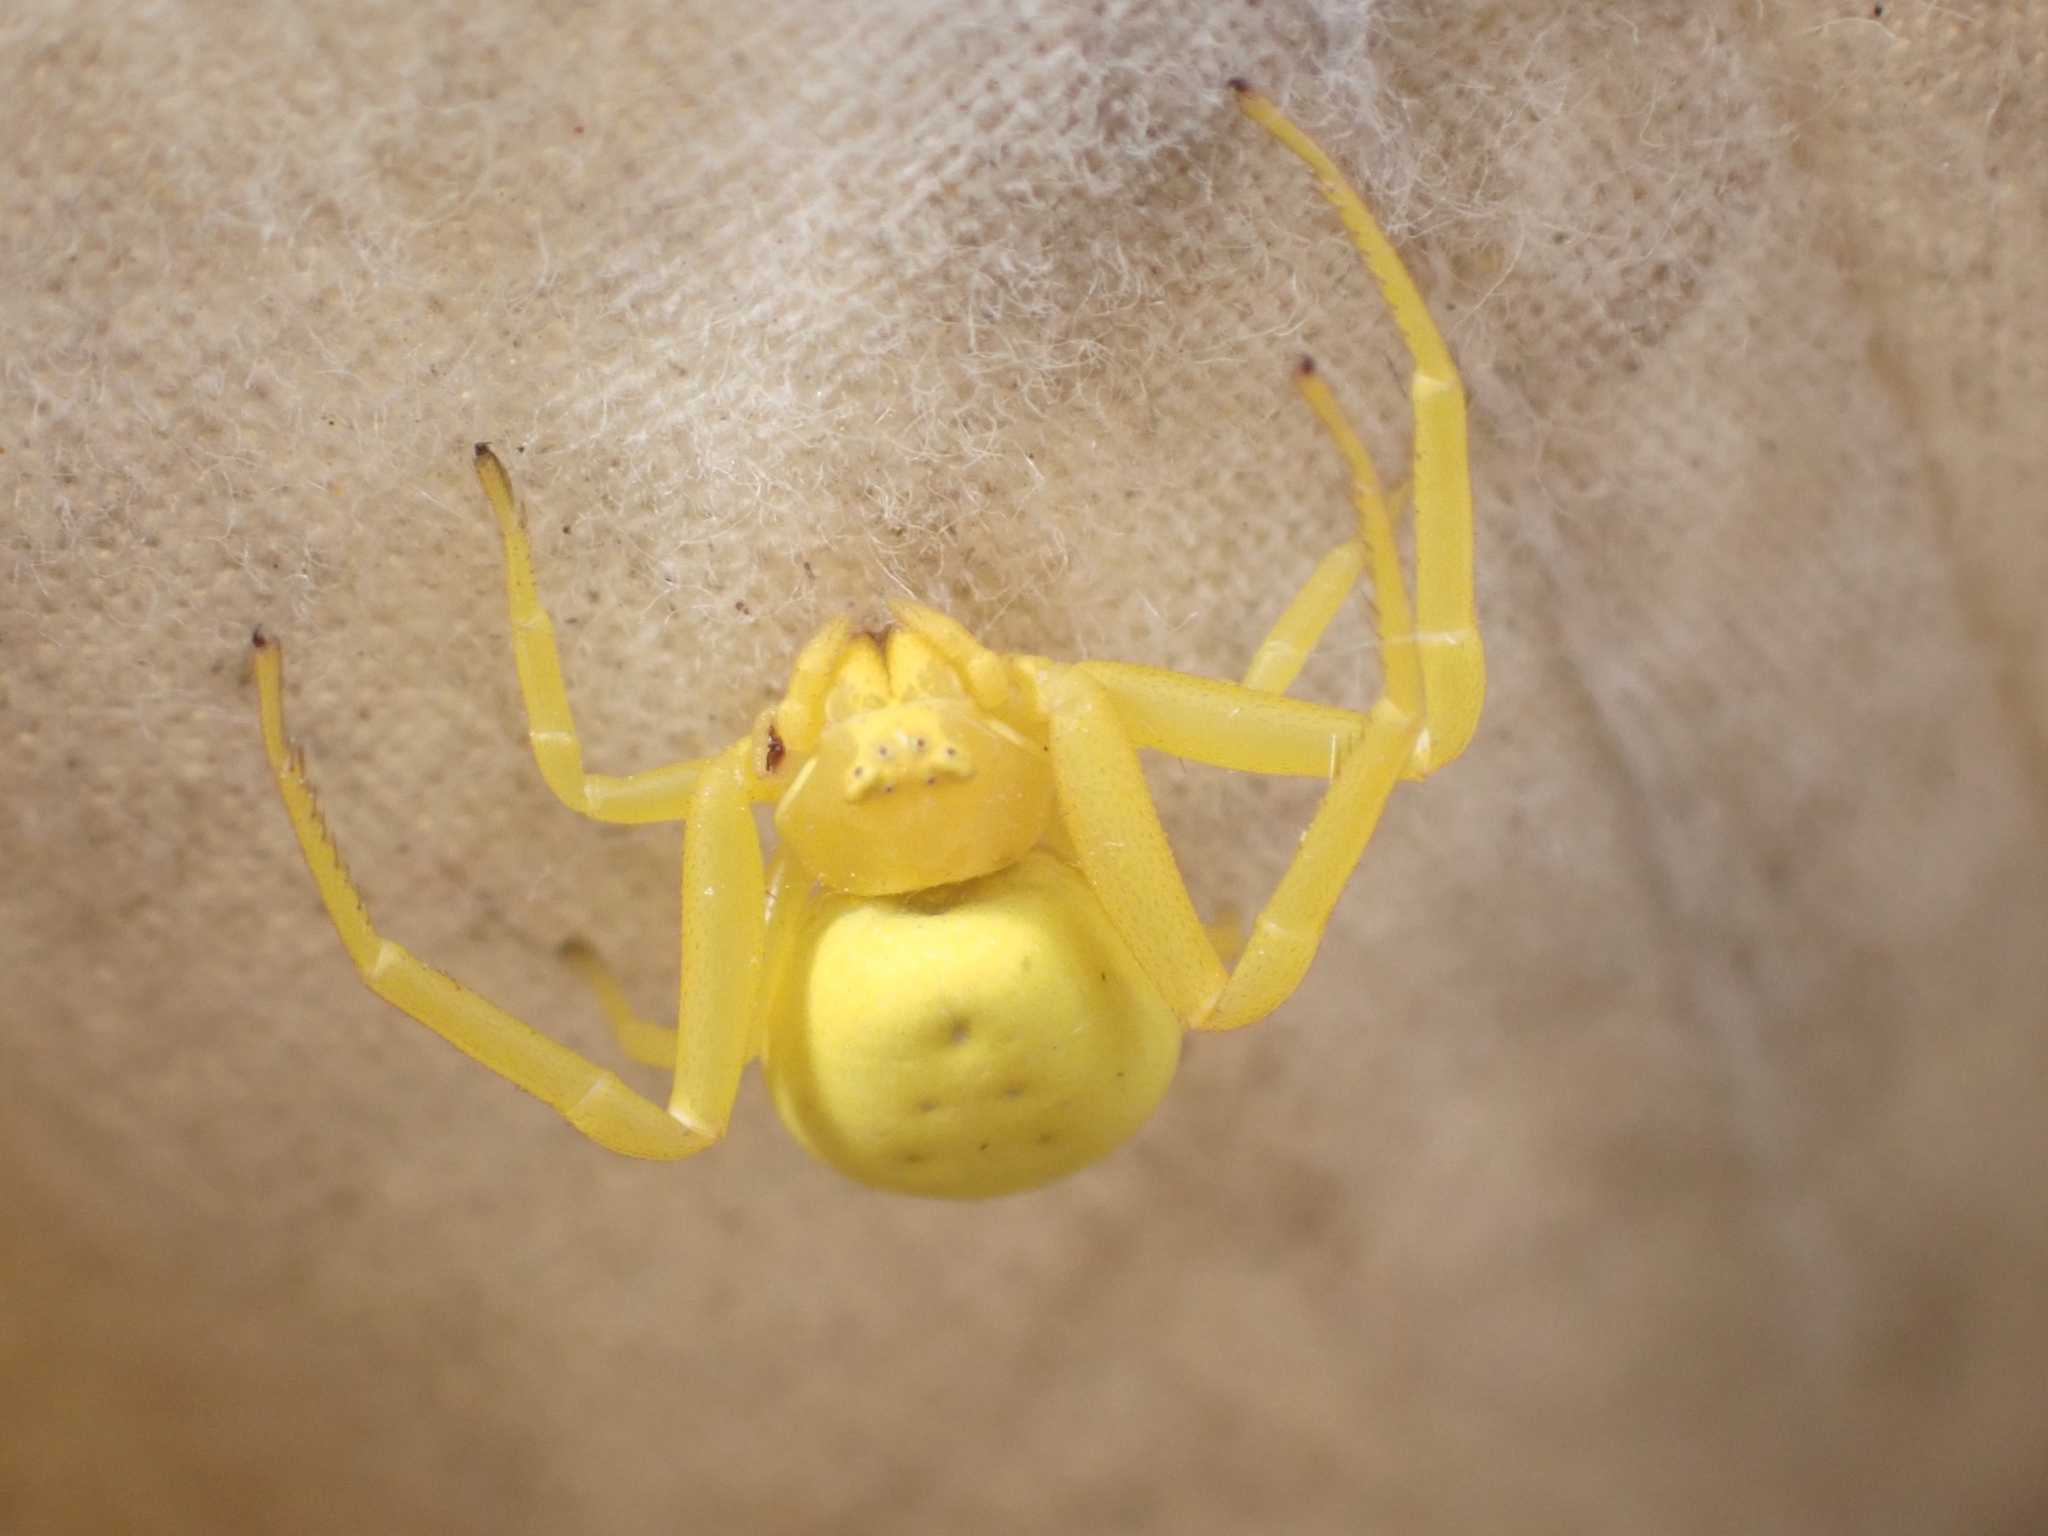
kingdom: Animalia
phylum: Arthropoda
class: Arachnida
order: Araneae
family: Thomisidae
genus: Misumena
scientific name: Misumena vatia
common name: Goldenrod crab spider
